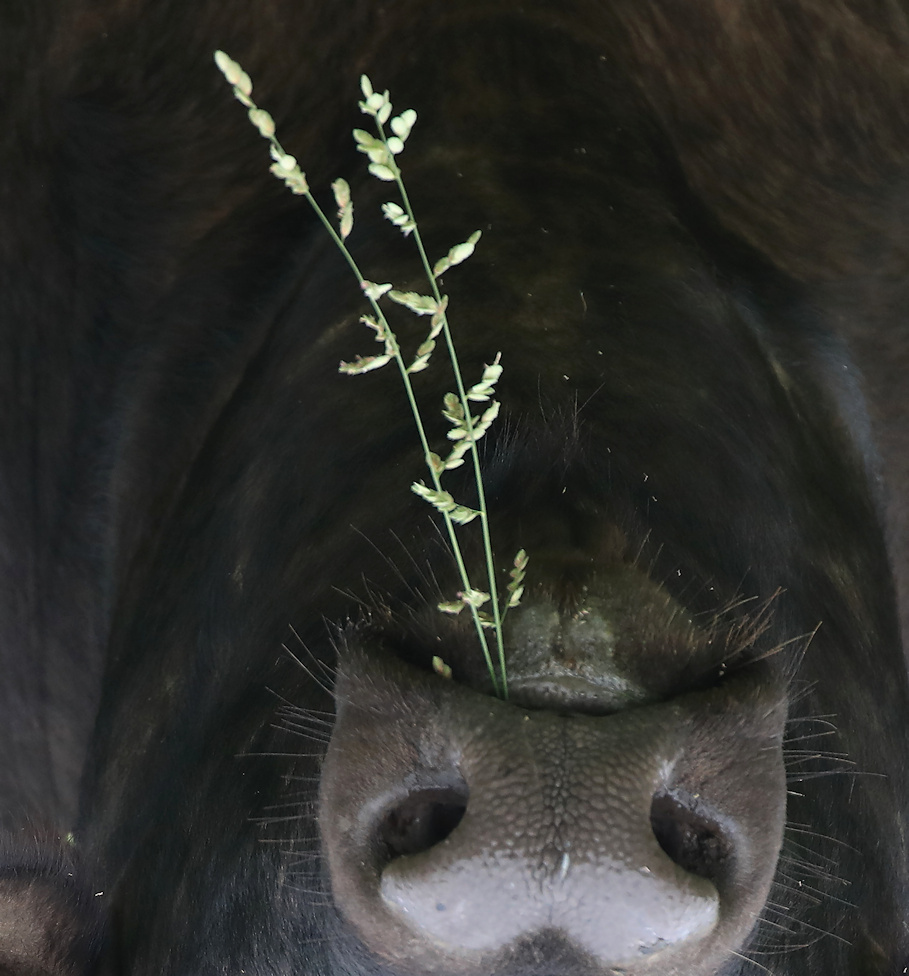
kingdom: Plantae
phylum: Tracheophyta
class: Liliopsida
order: Poales
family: Poaceae
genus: Eragrostis
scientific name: Eragrostis superba
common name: Wilman lovegrass
